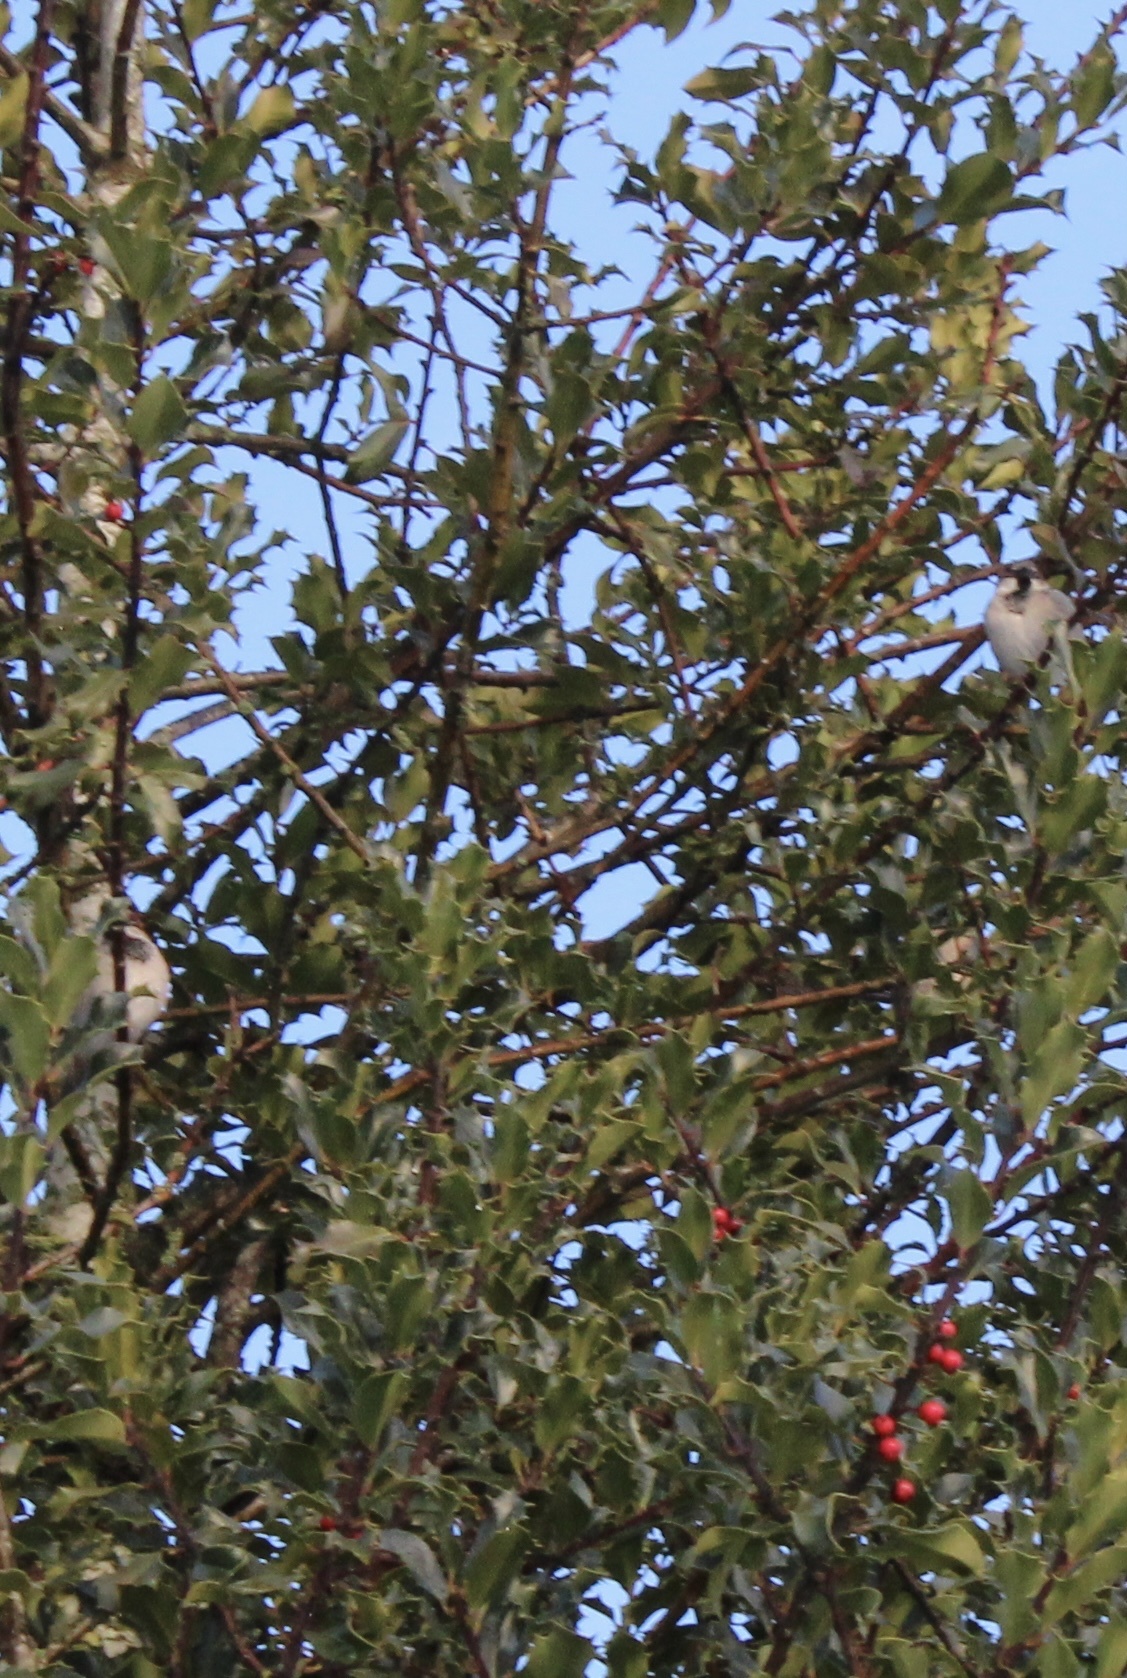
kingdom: Animalia
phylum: Chordata
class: Aves
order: Passeriformes
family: Passeridae
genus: Passer
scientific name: Passer domesticus
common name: House sparrow
